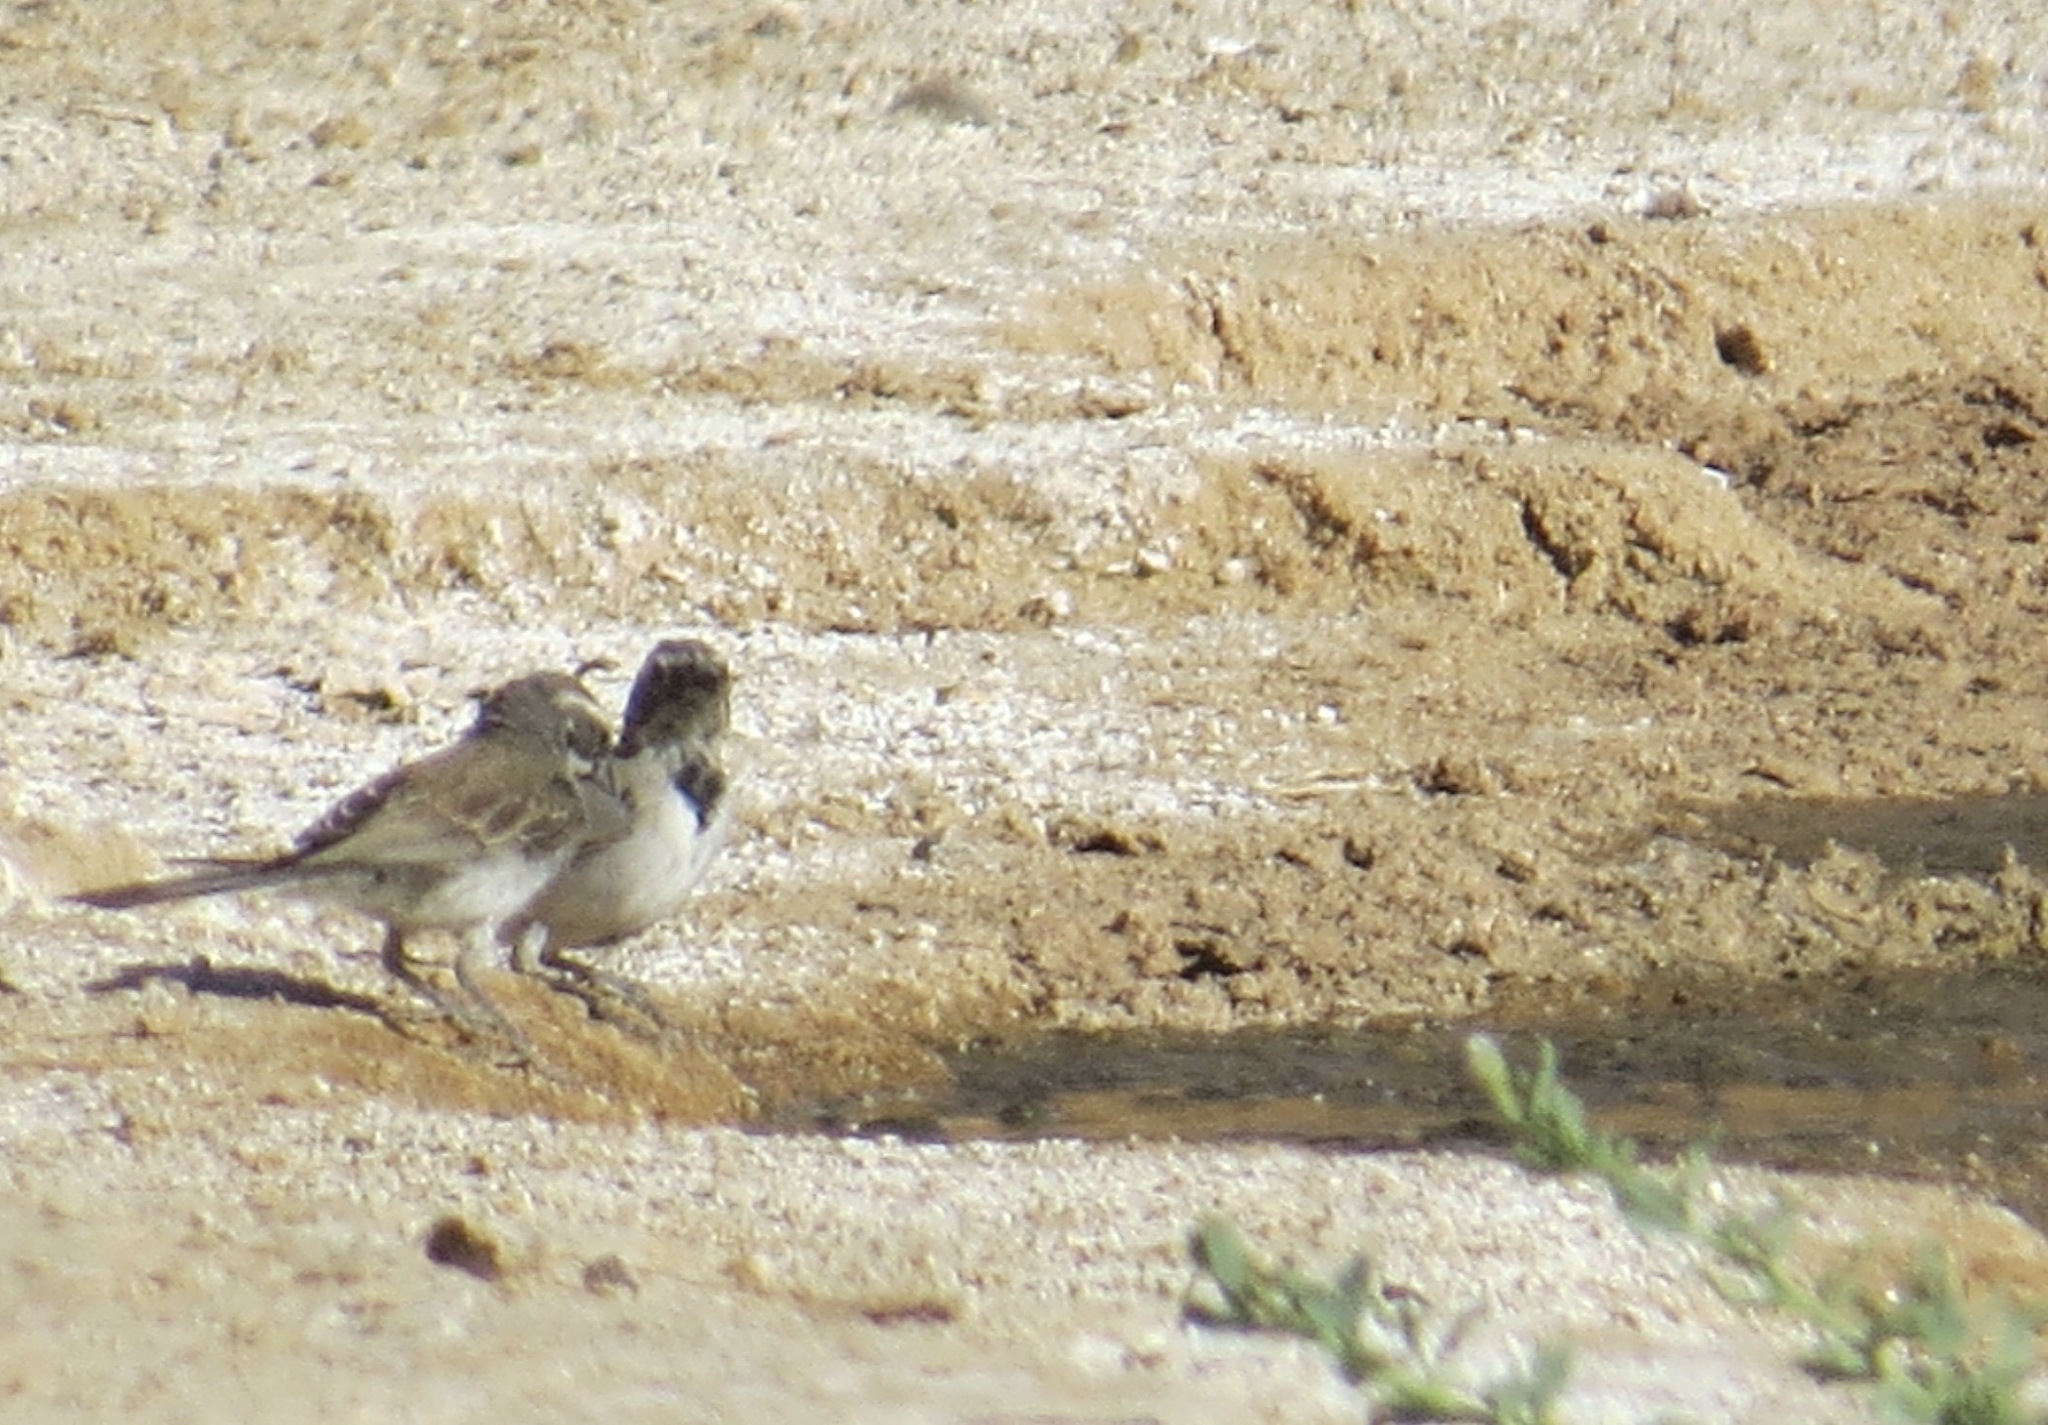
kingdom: Animalia
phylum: Chordata
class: Aves
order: Passeriformes
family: Passerellidae
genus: Amphispiza
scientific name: Amphispiza bilineata
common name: Black-throated sparrow
